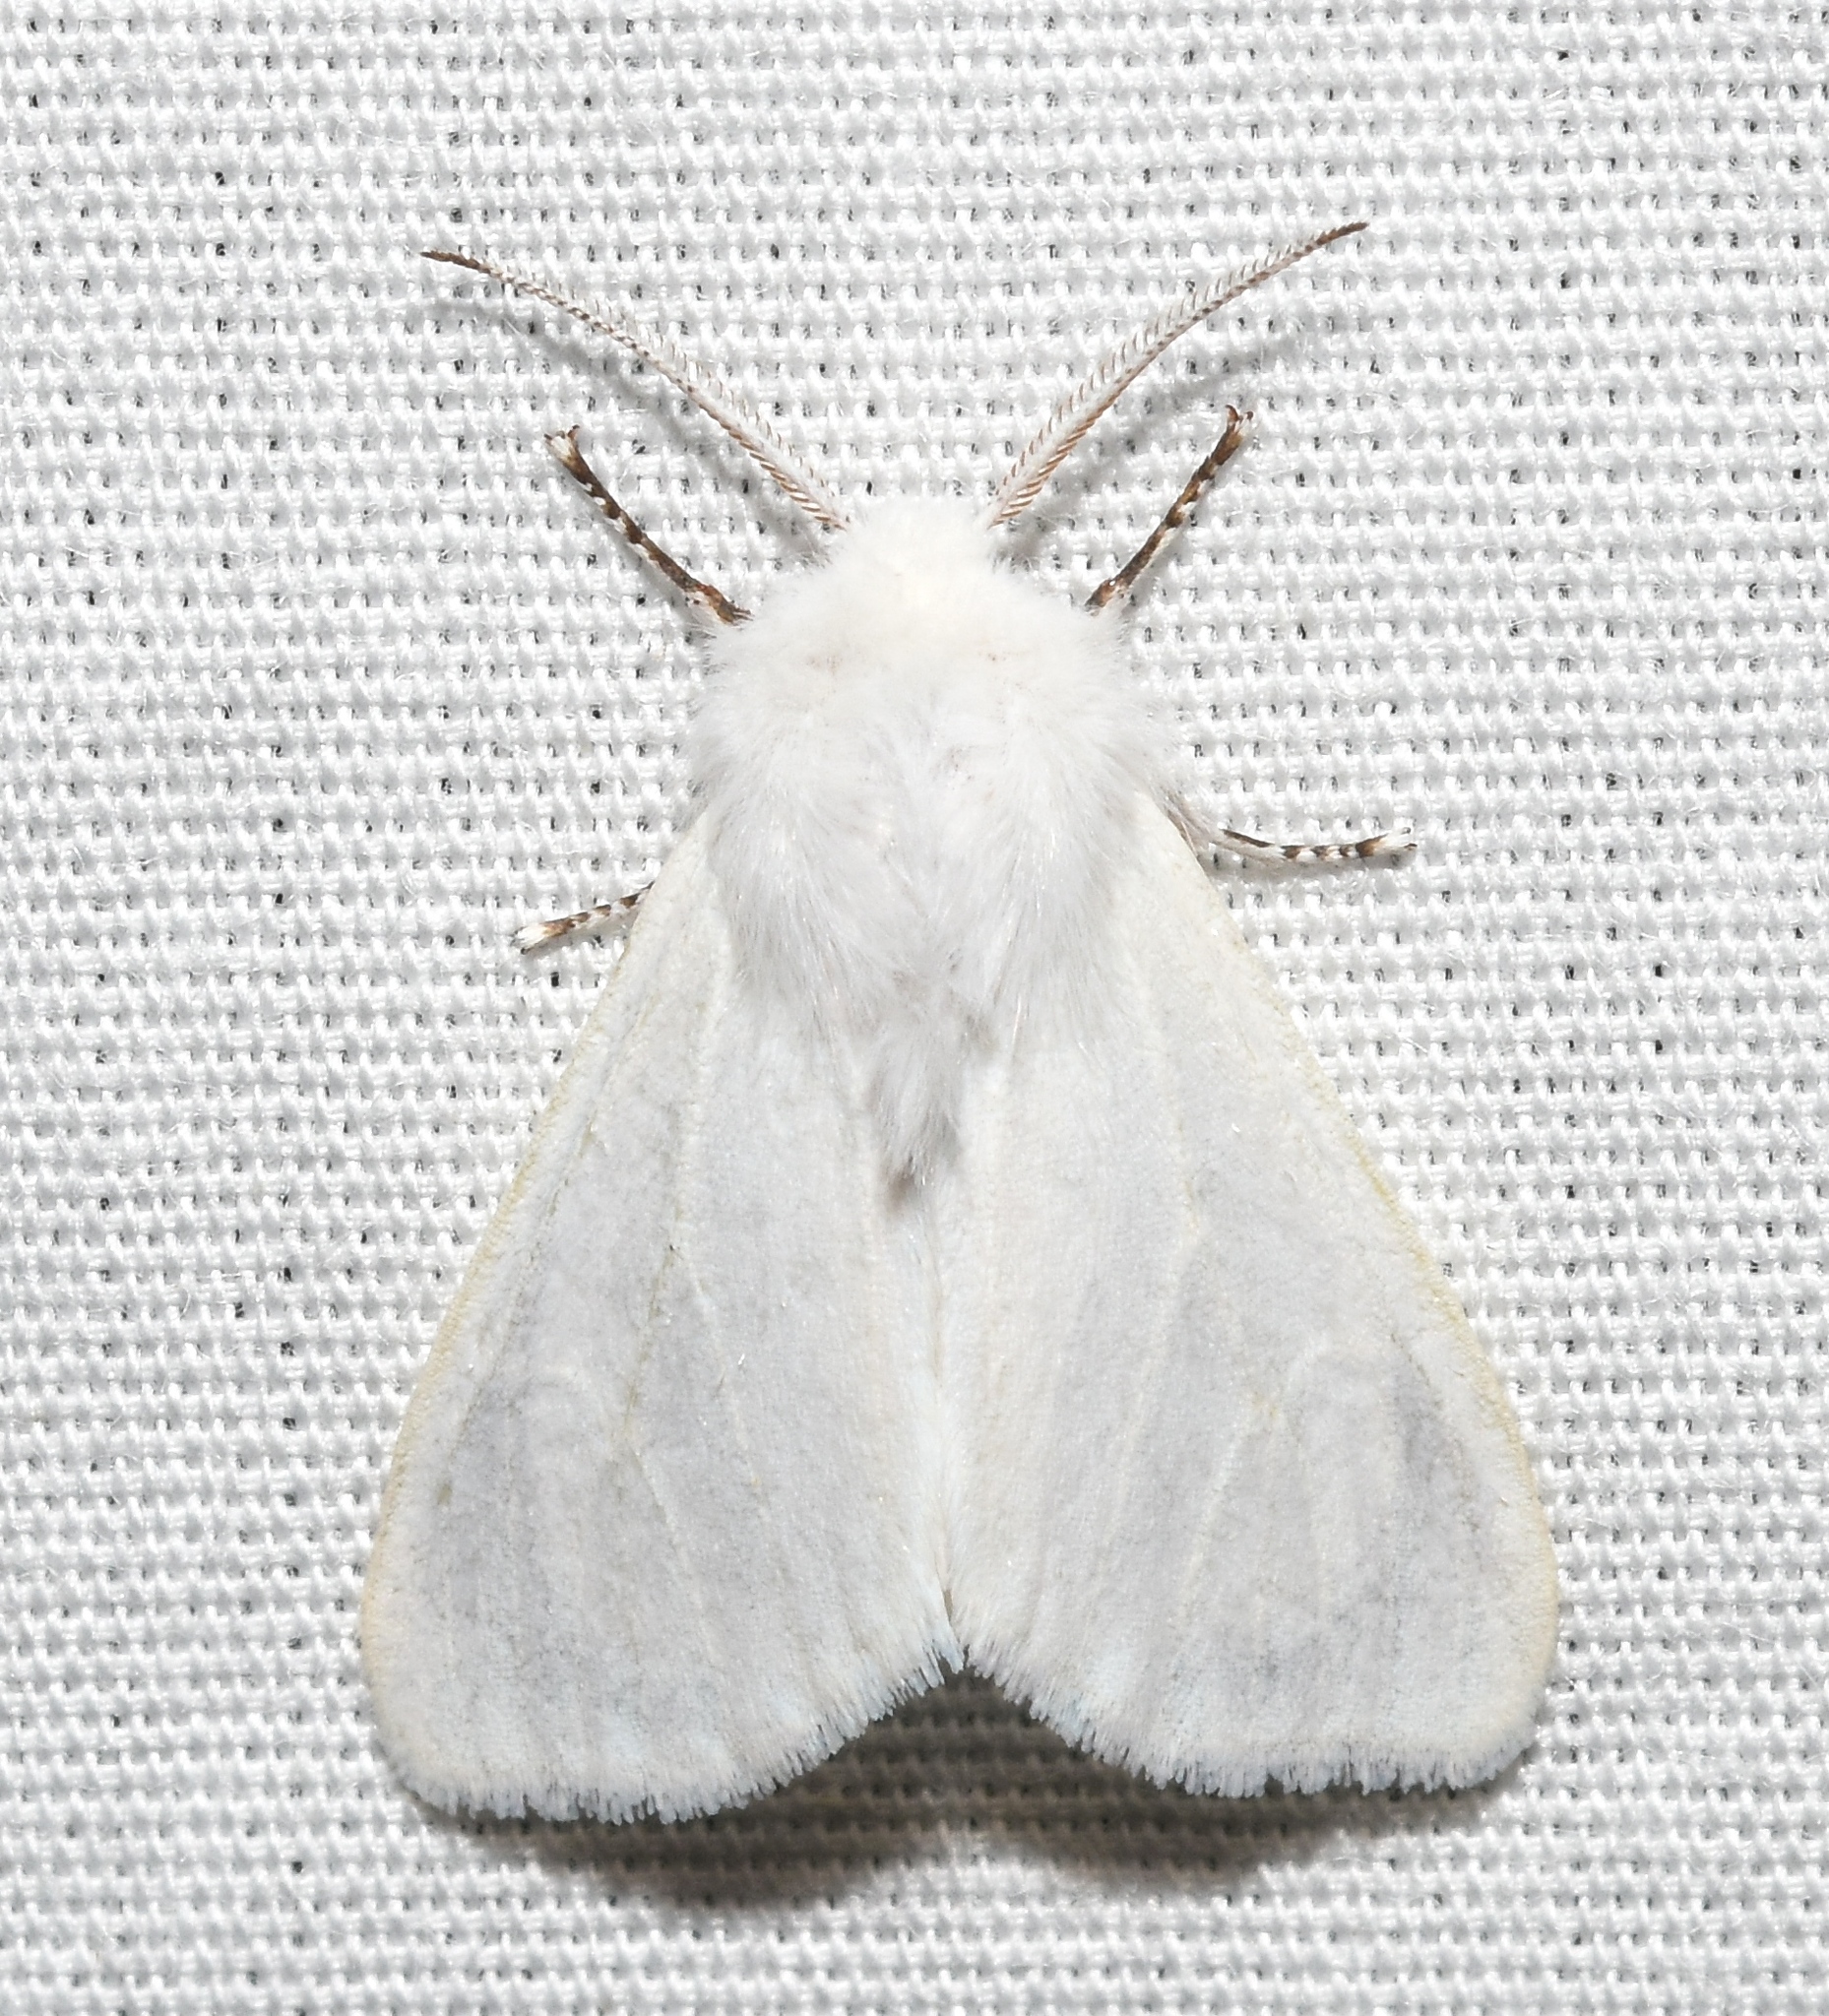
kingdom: Animalia
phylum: Arthropoda
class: Insecta
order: Lepidoptera
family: Erebidae
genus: Hyphantria
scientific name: Hyphantria cunea
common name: American white moth
